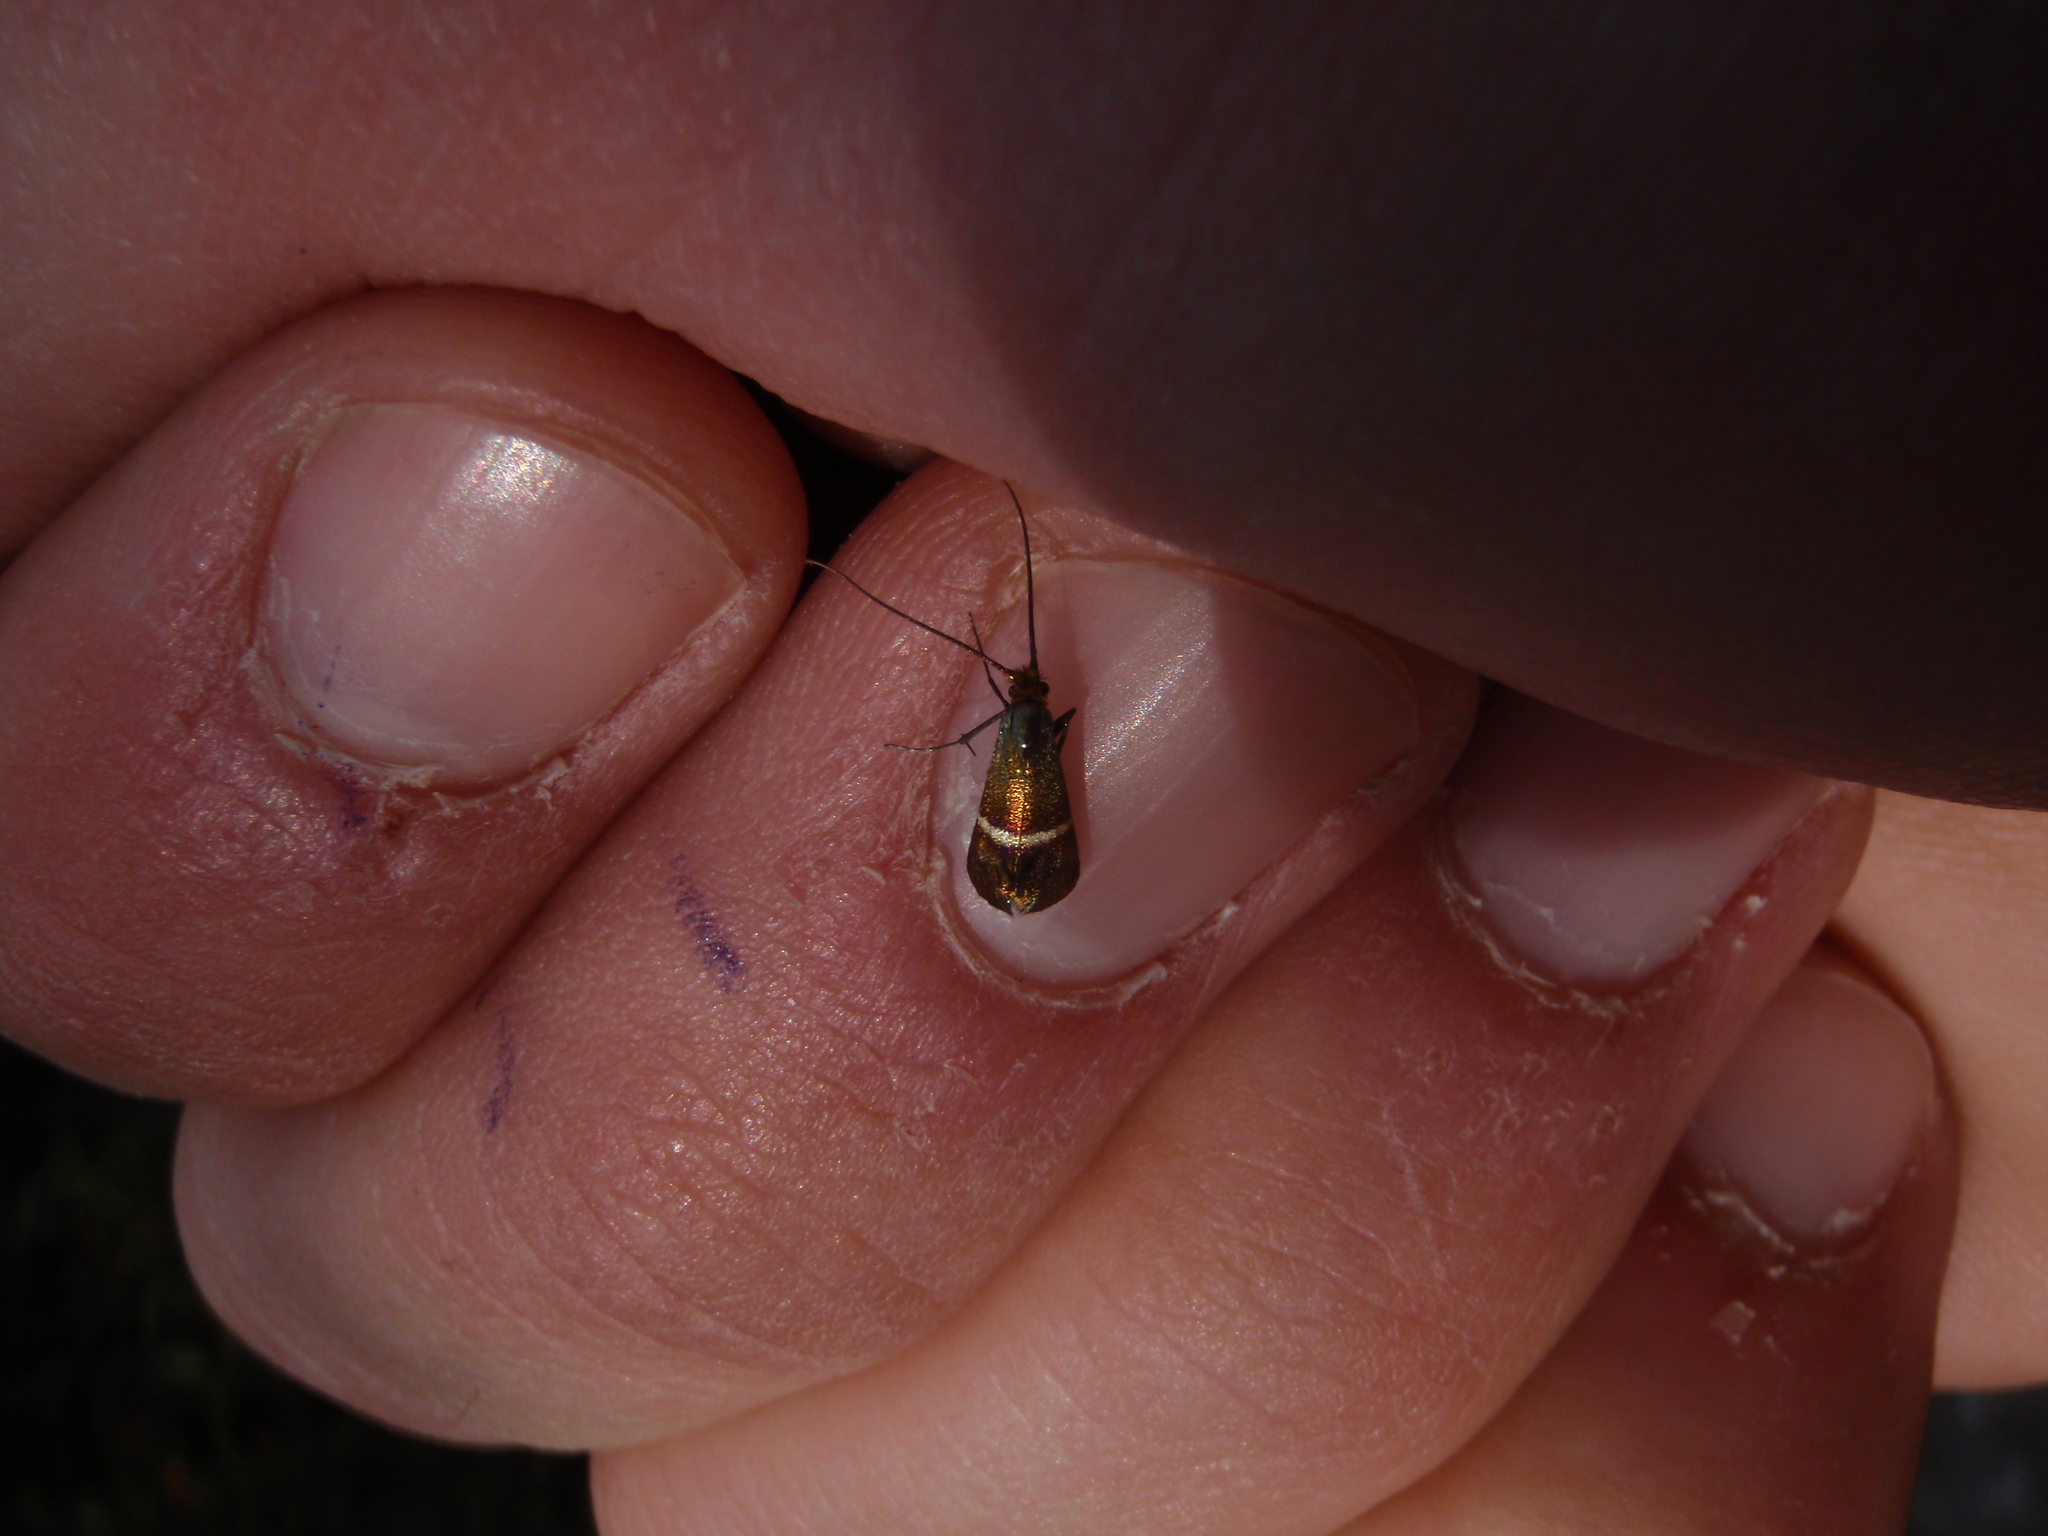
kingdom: Animalia
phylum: Arthropoda
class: Insecta
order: Lepidoptera
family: Adelidae
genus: Adela
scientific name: Adela australis
